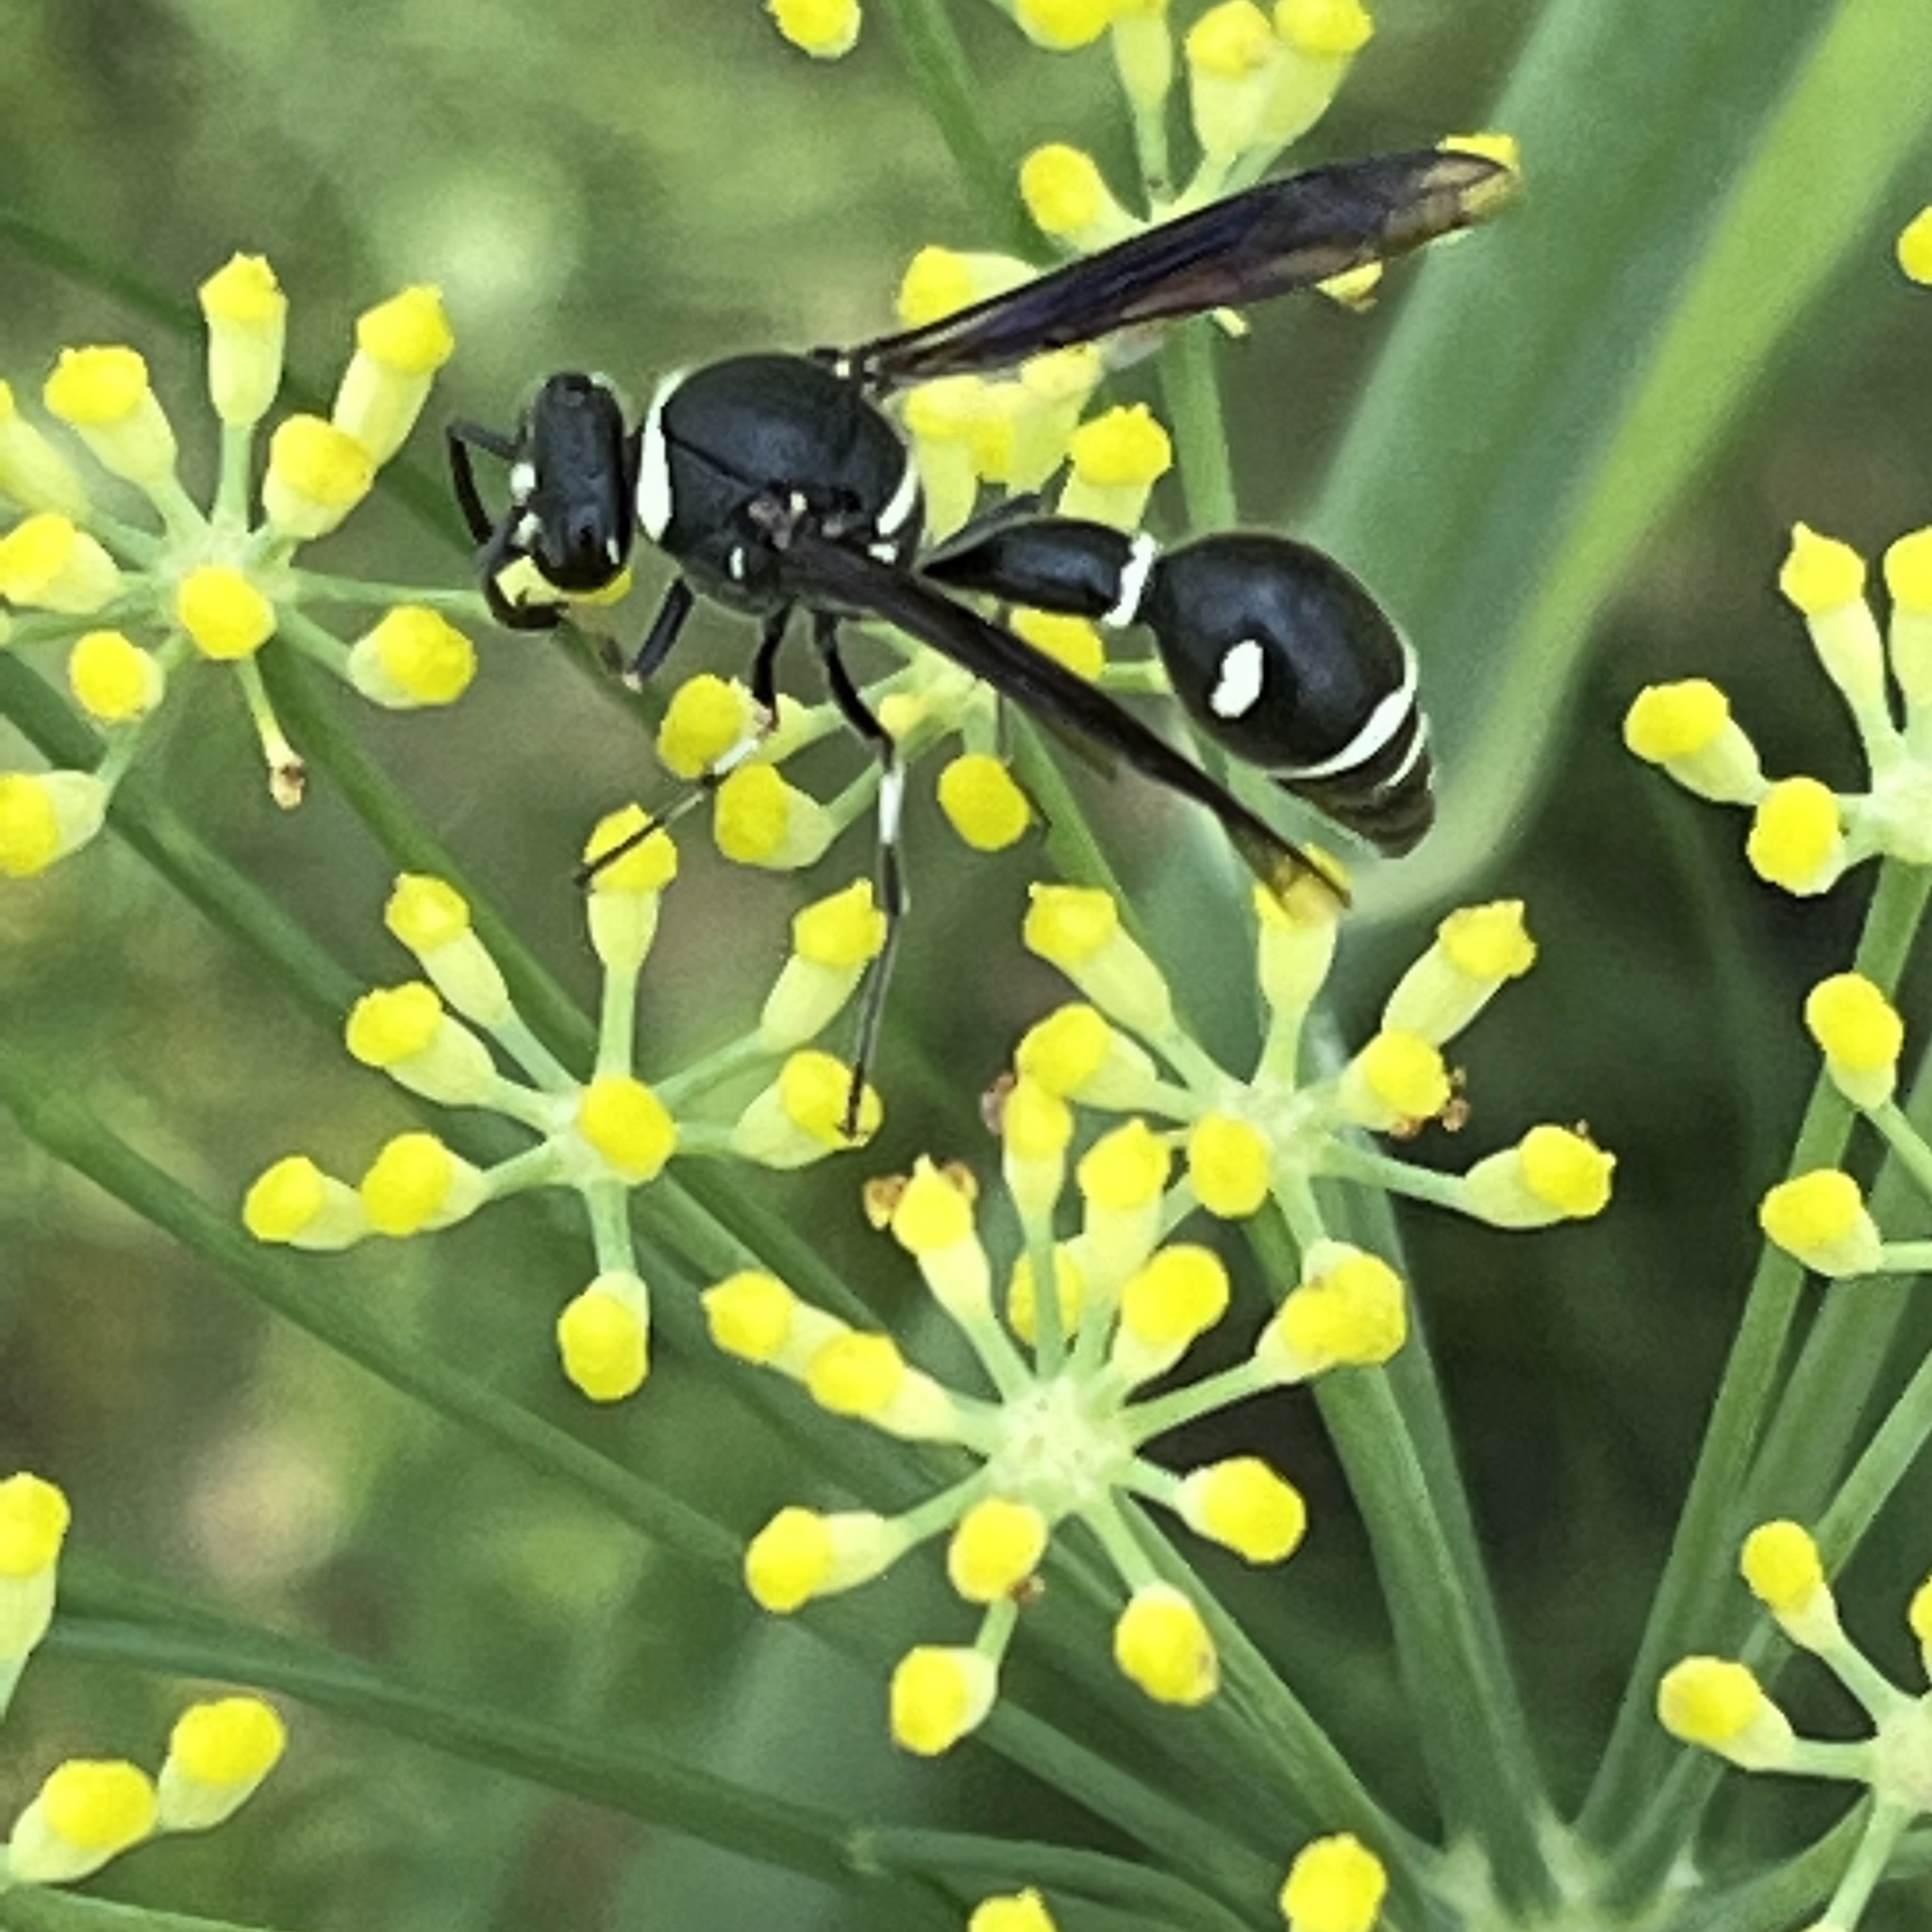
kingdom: Animalia
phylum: Arthropoda
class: Insecta
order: Hymenoptera
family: Vespidae
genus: Eumenes
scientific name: Eumenes fraternus
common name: Fraternal potter wasp
